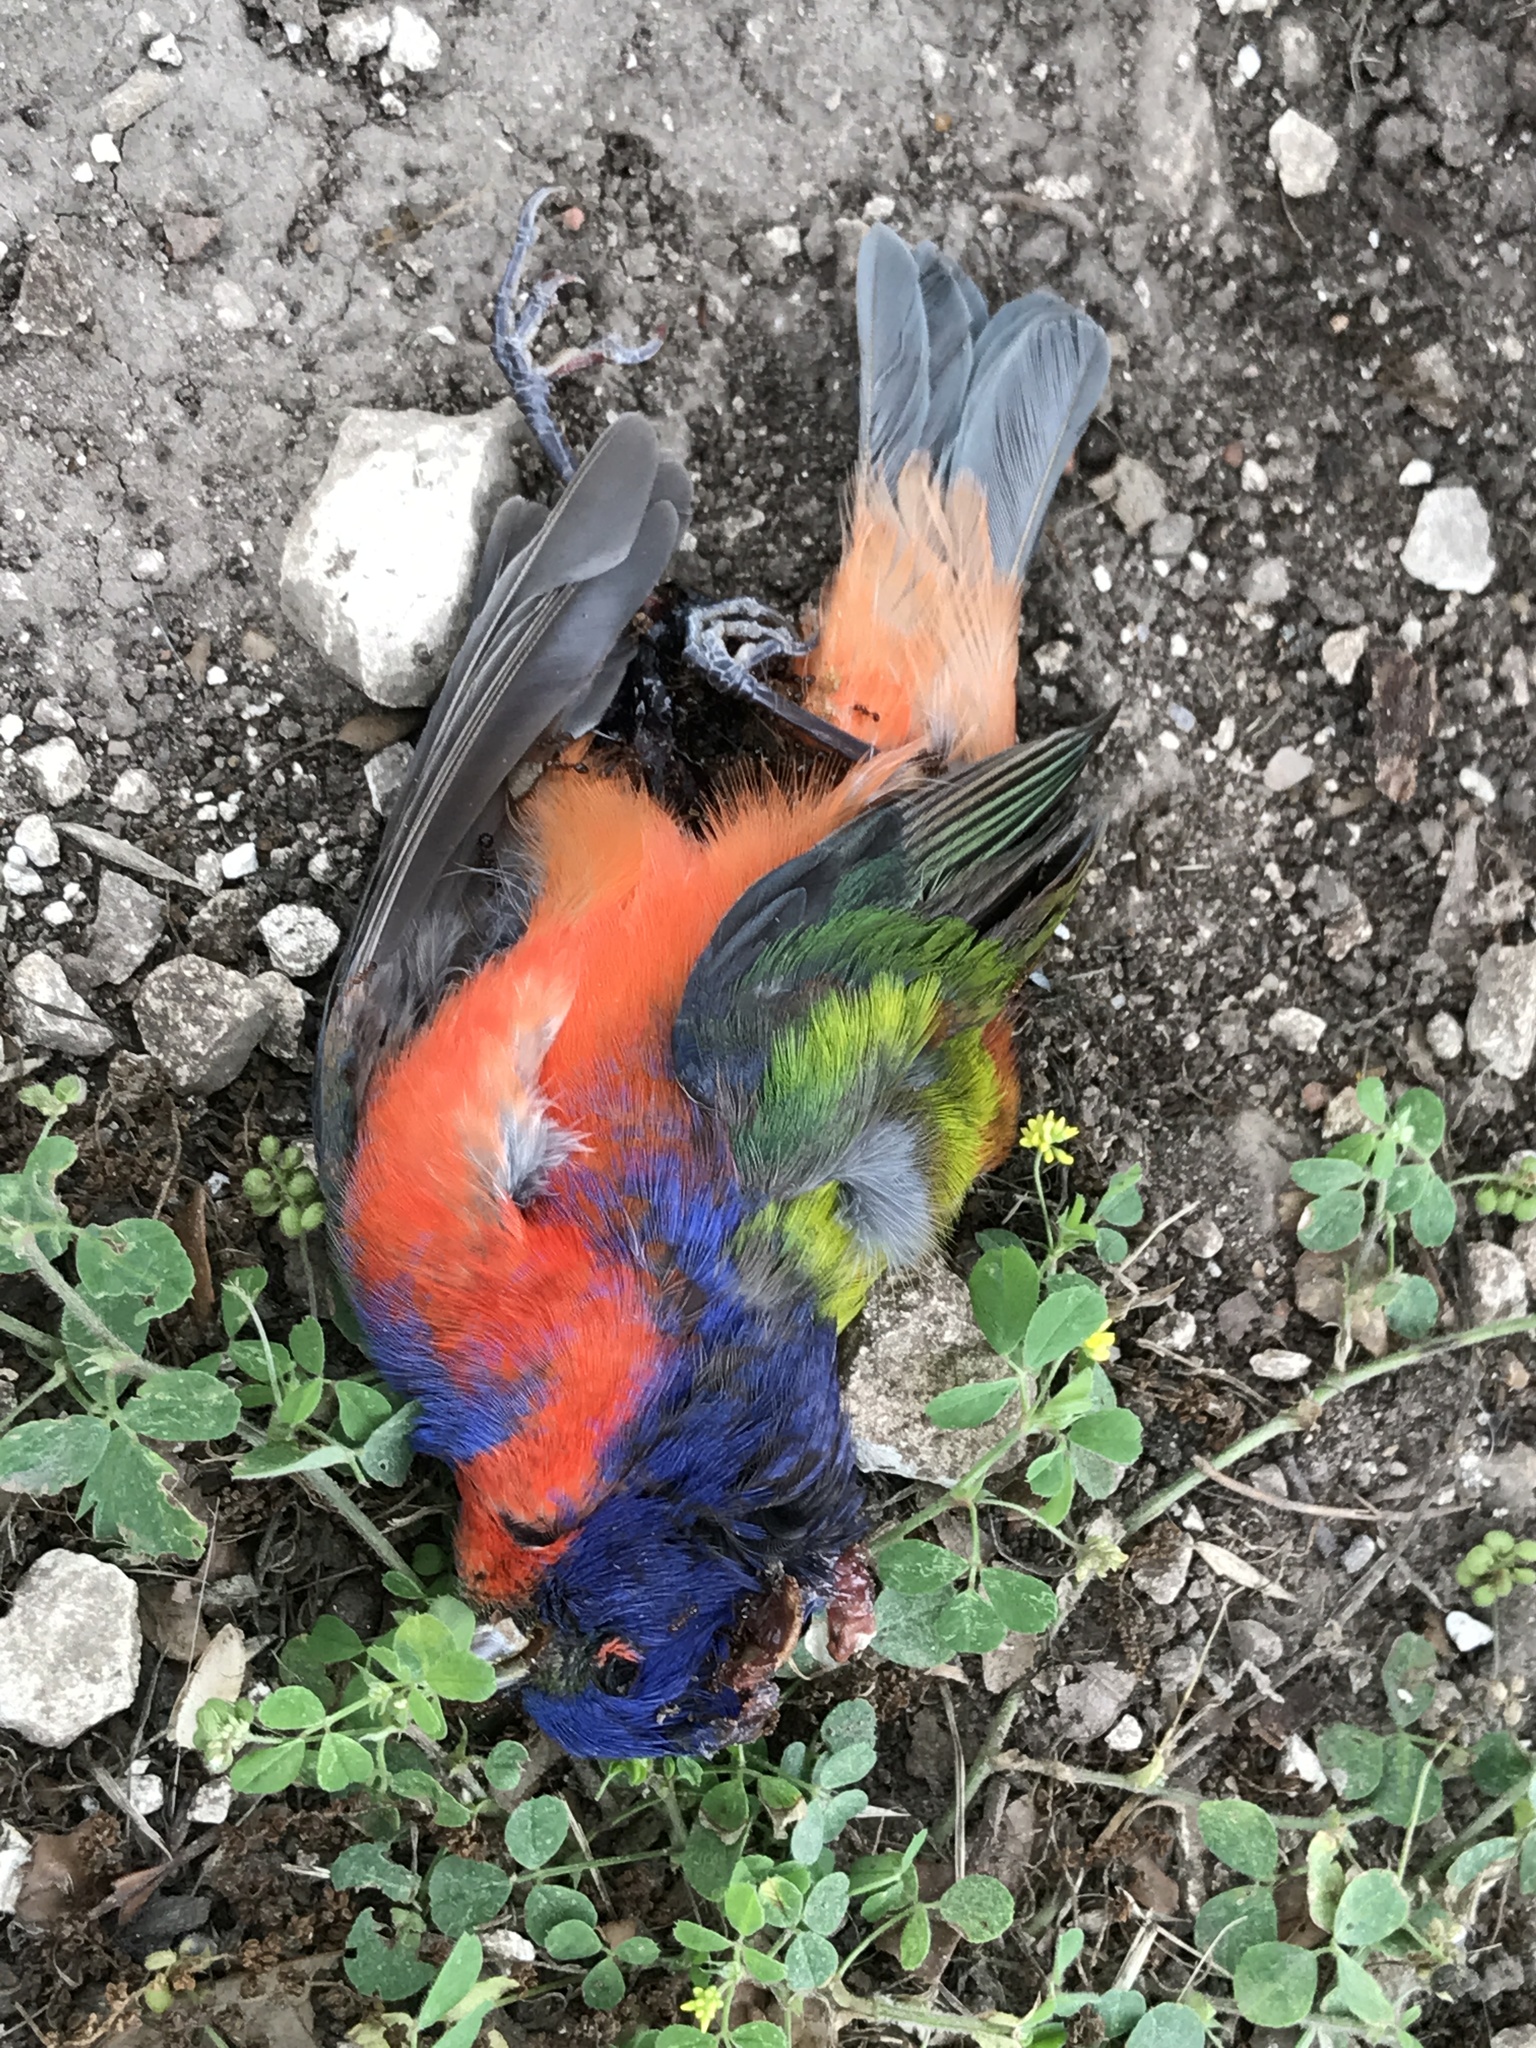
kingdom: Animalia
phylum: Chordata
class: Aves
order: Passeriformes
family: Cardinalidae
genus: Passerina
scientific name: Passerina ciris
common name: Painted bunting
